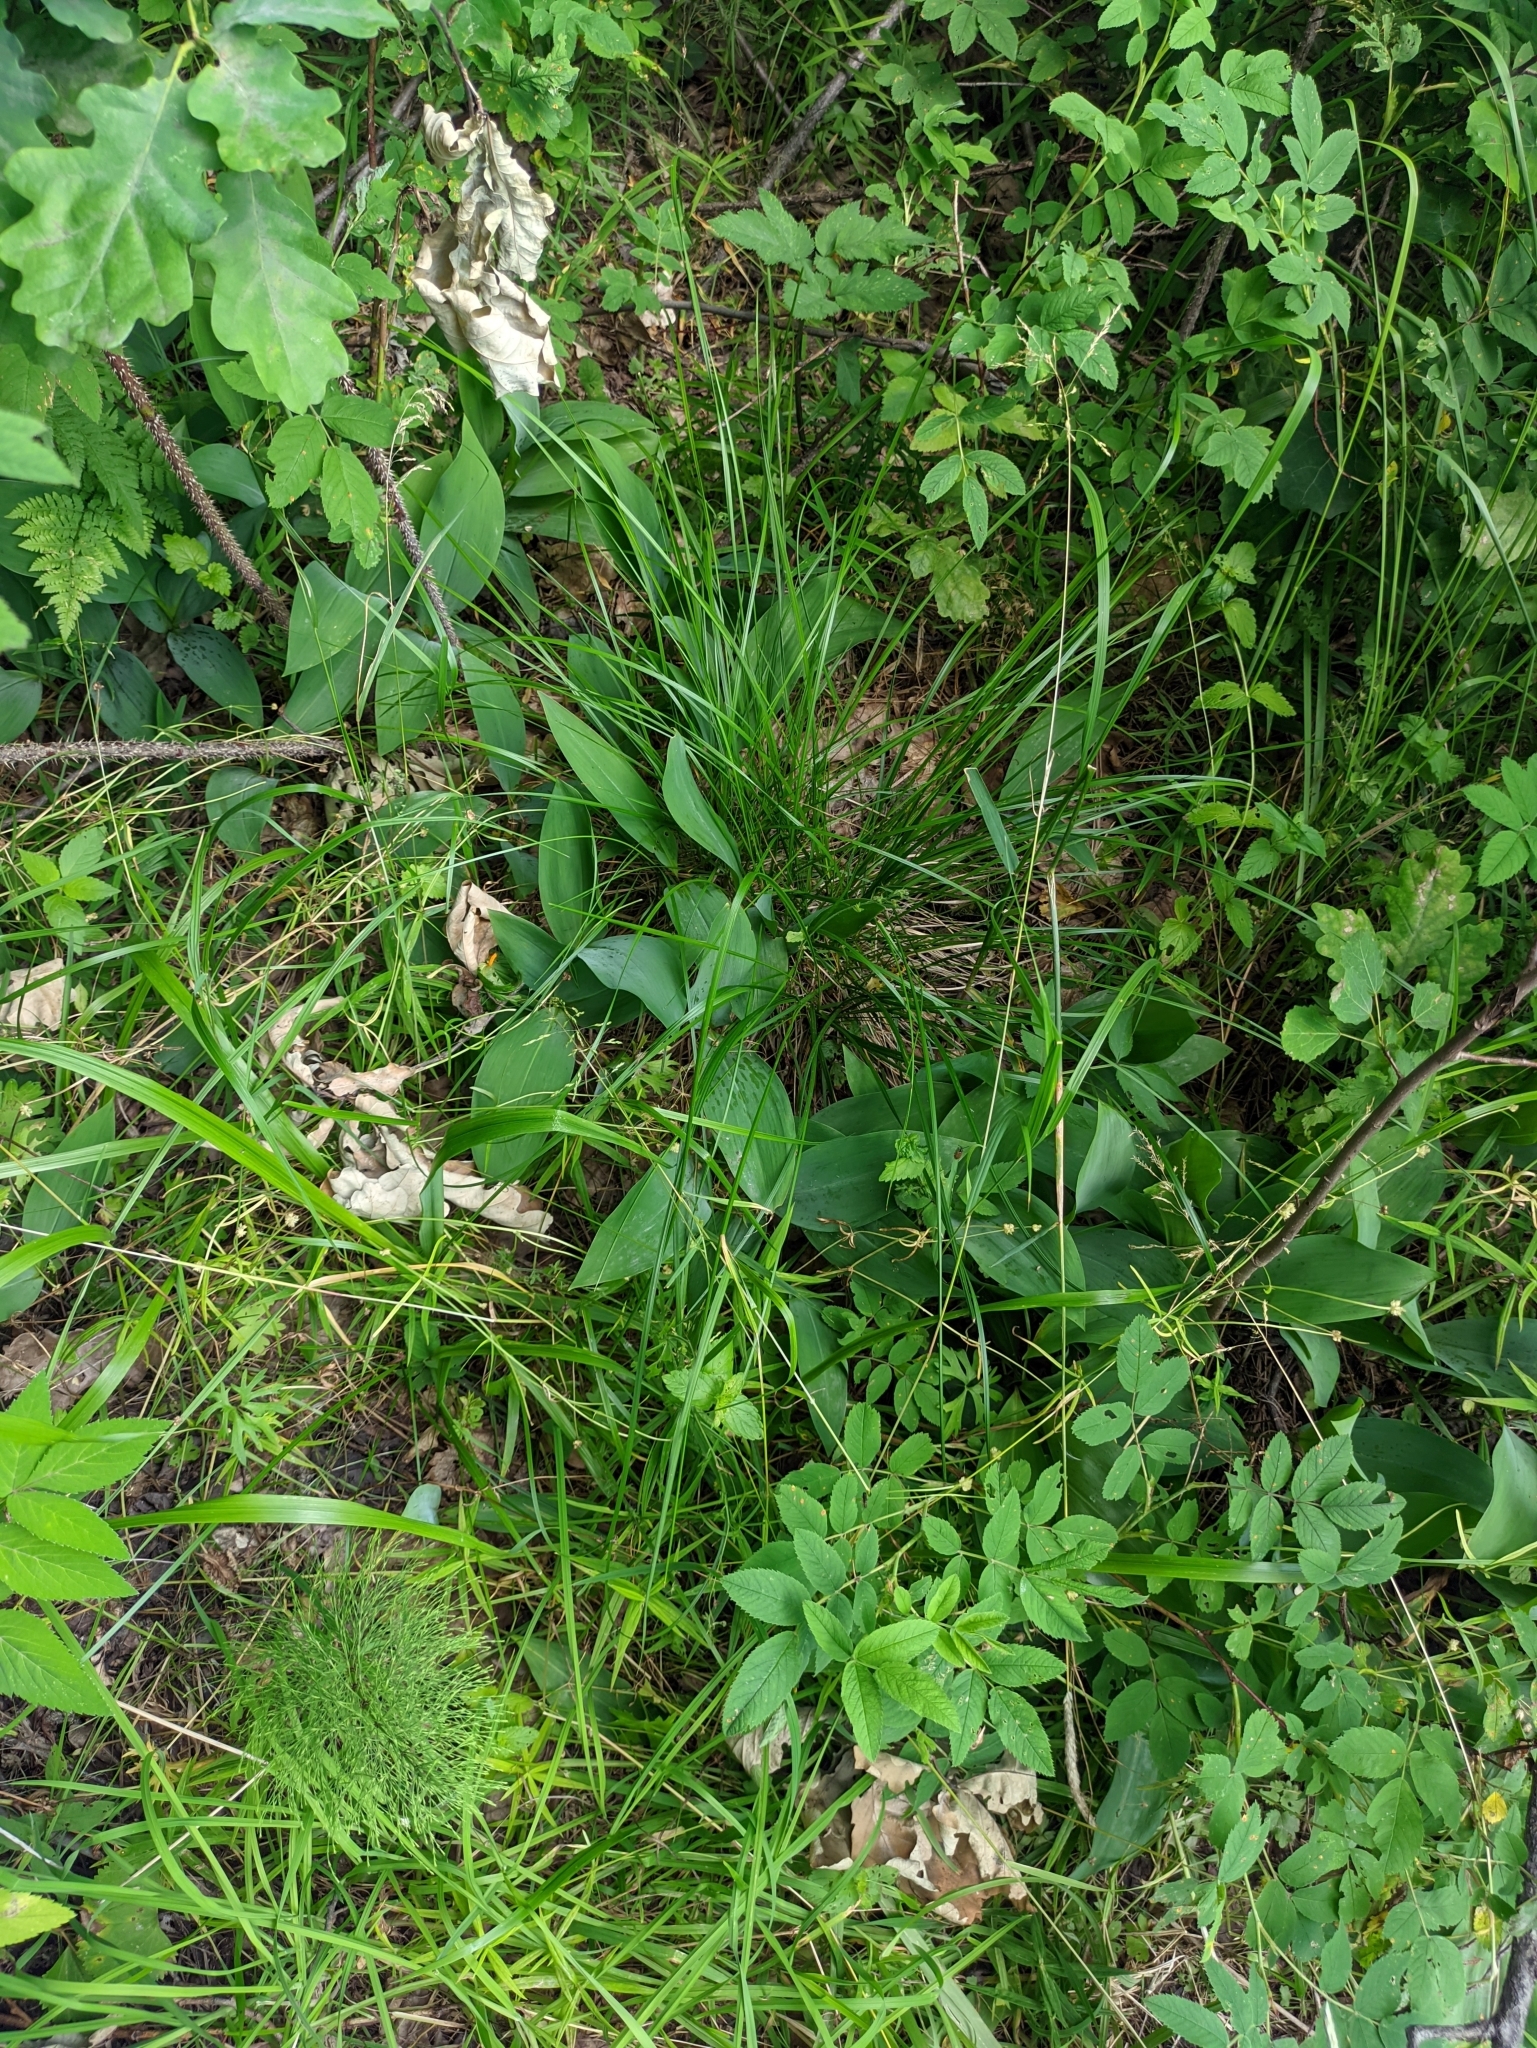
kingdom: Plantae
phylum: Tracheophyta
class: Liliopsida
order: Asparagales
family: Asparagaceae
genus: Convallaria
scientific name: Convallaria majalis
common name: Lily-of-the-valley
